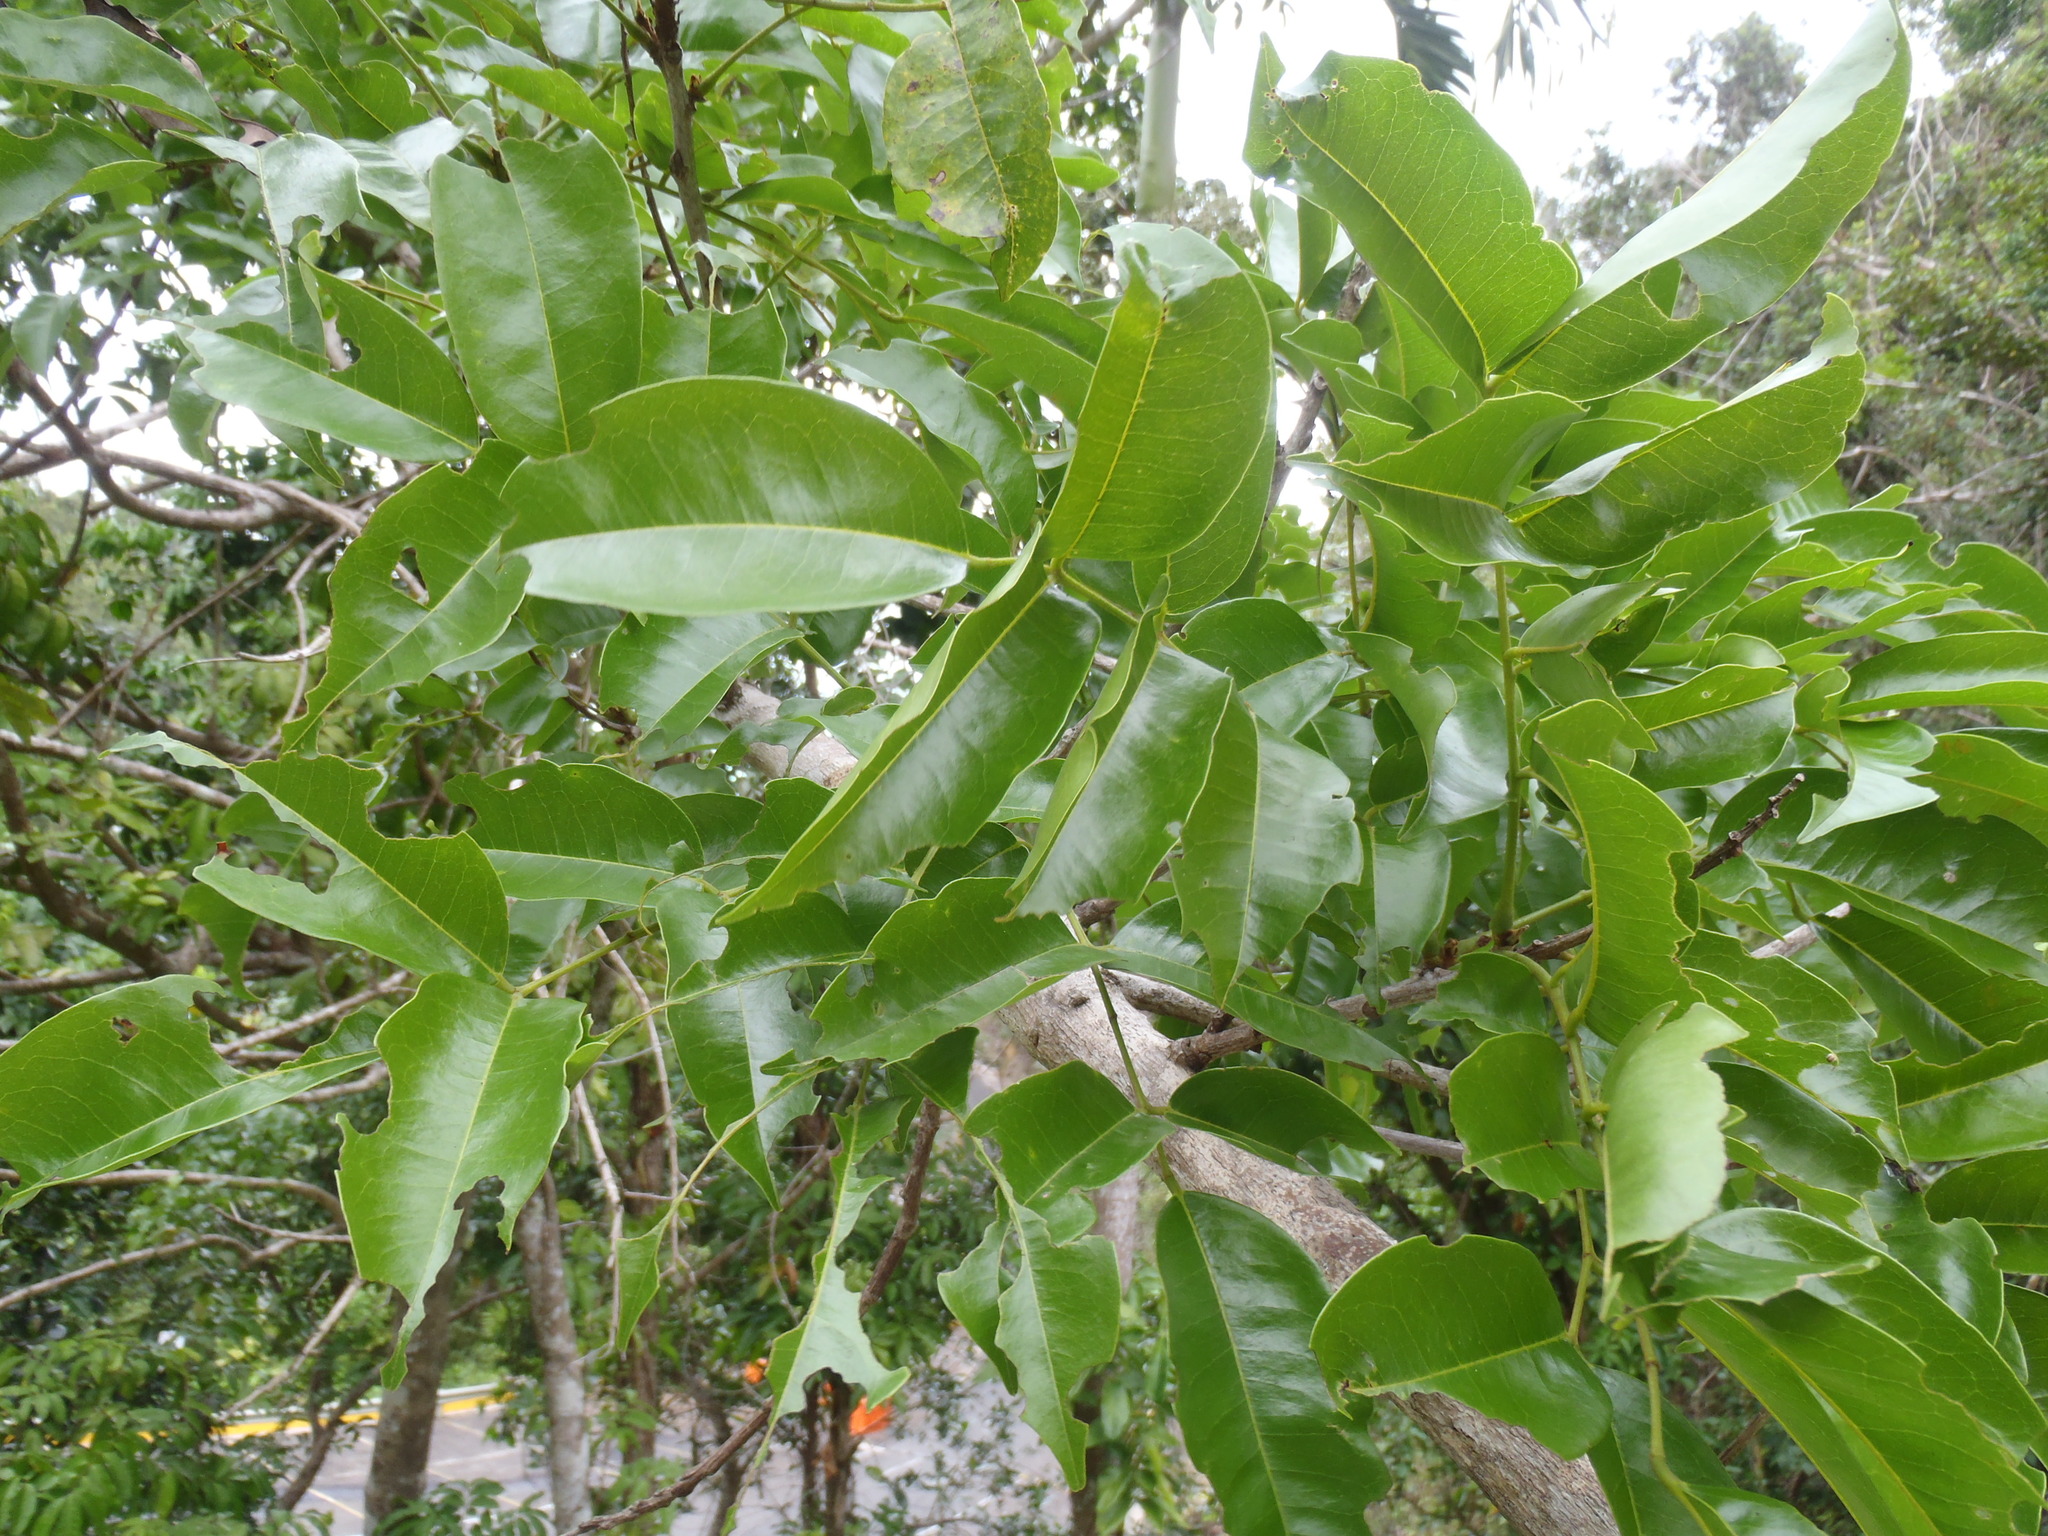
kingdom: Plantae
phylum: Tracheophyta
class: Magnoliopsida
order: Fabales
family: Fabaceae
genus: Andira
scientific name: Andira inermis
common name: Angelin
